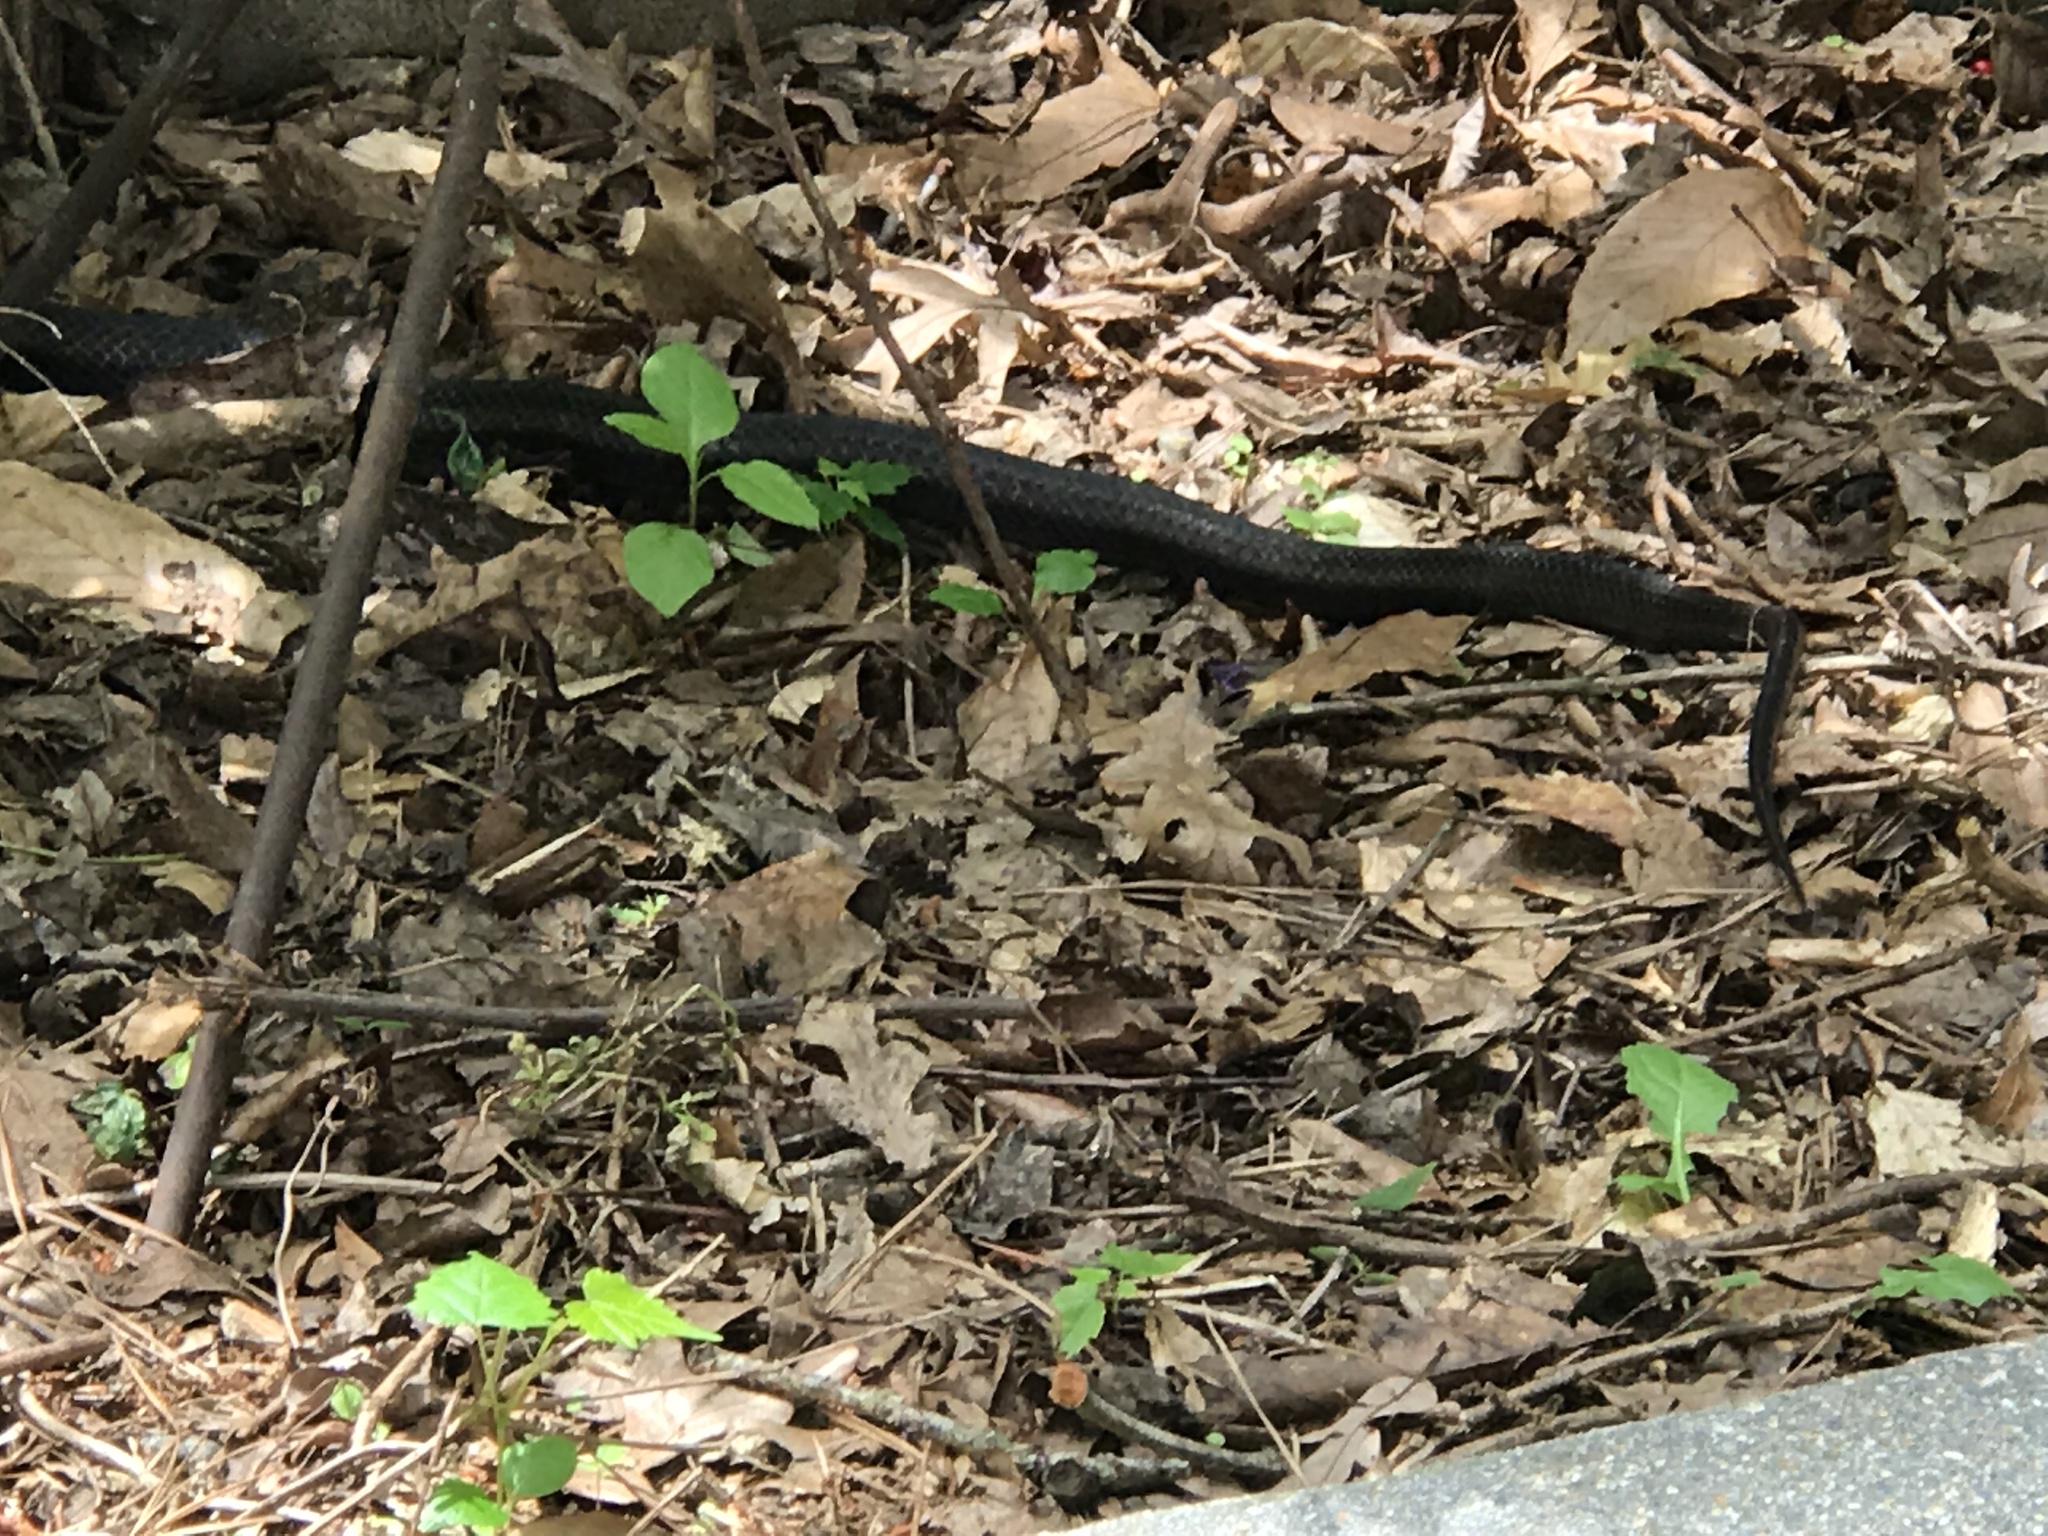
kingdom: Animalia
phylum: Chordata
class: Squamata
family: Colubridae
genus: Pantherophis
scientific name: Pantherophis alleghaniensis
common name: Eastern rat snake
